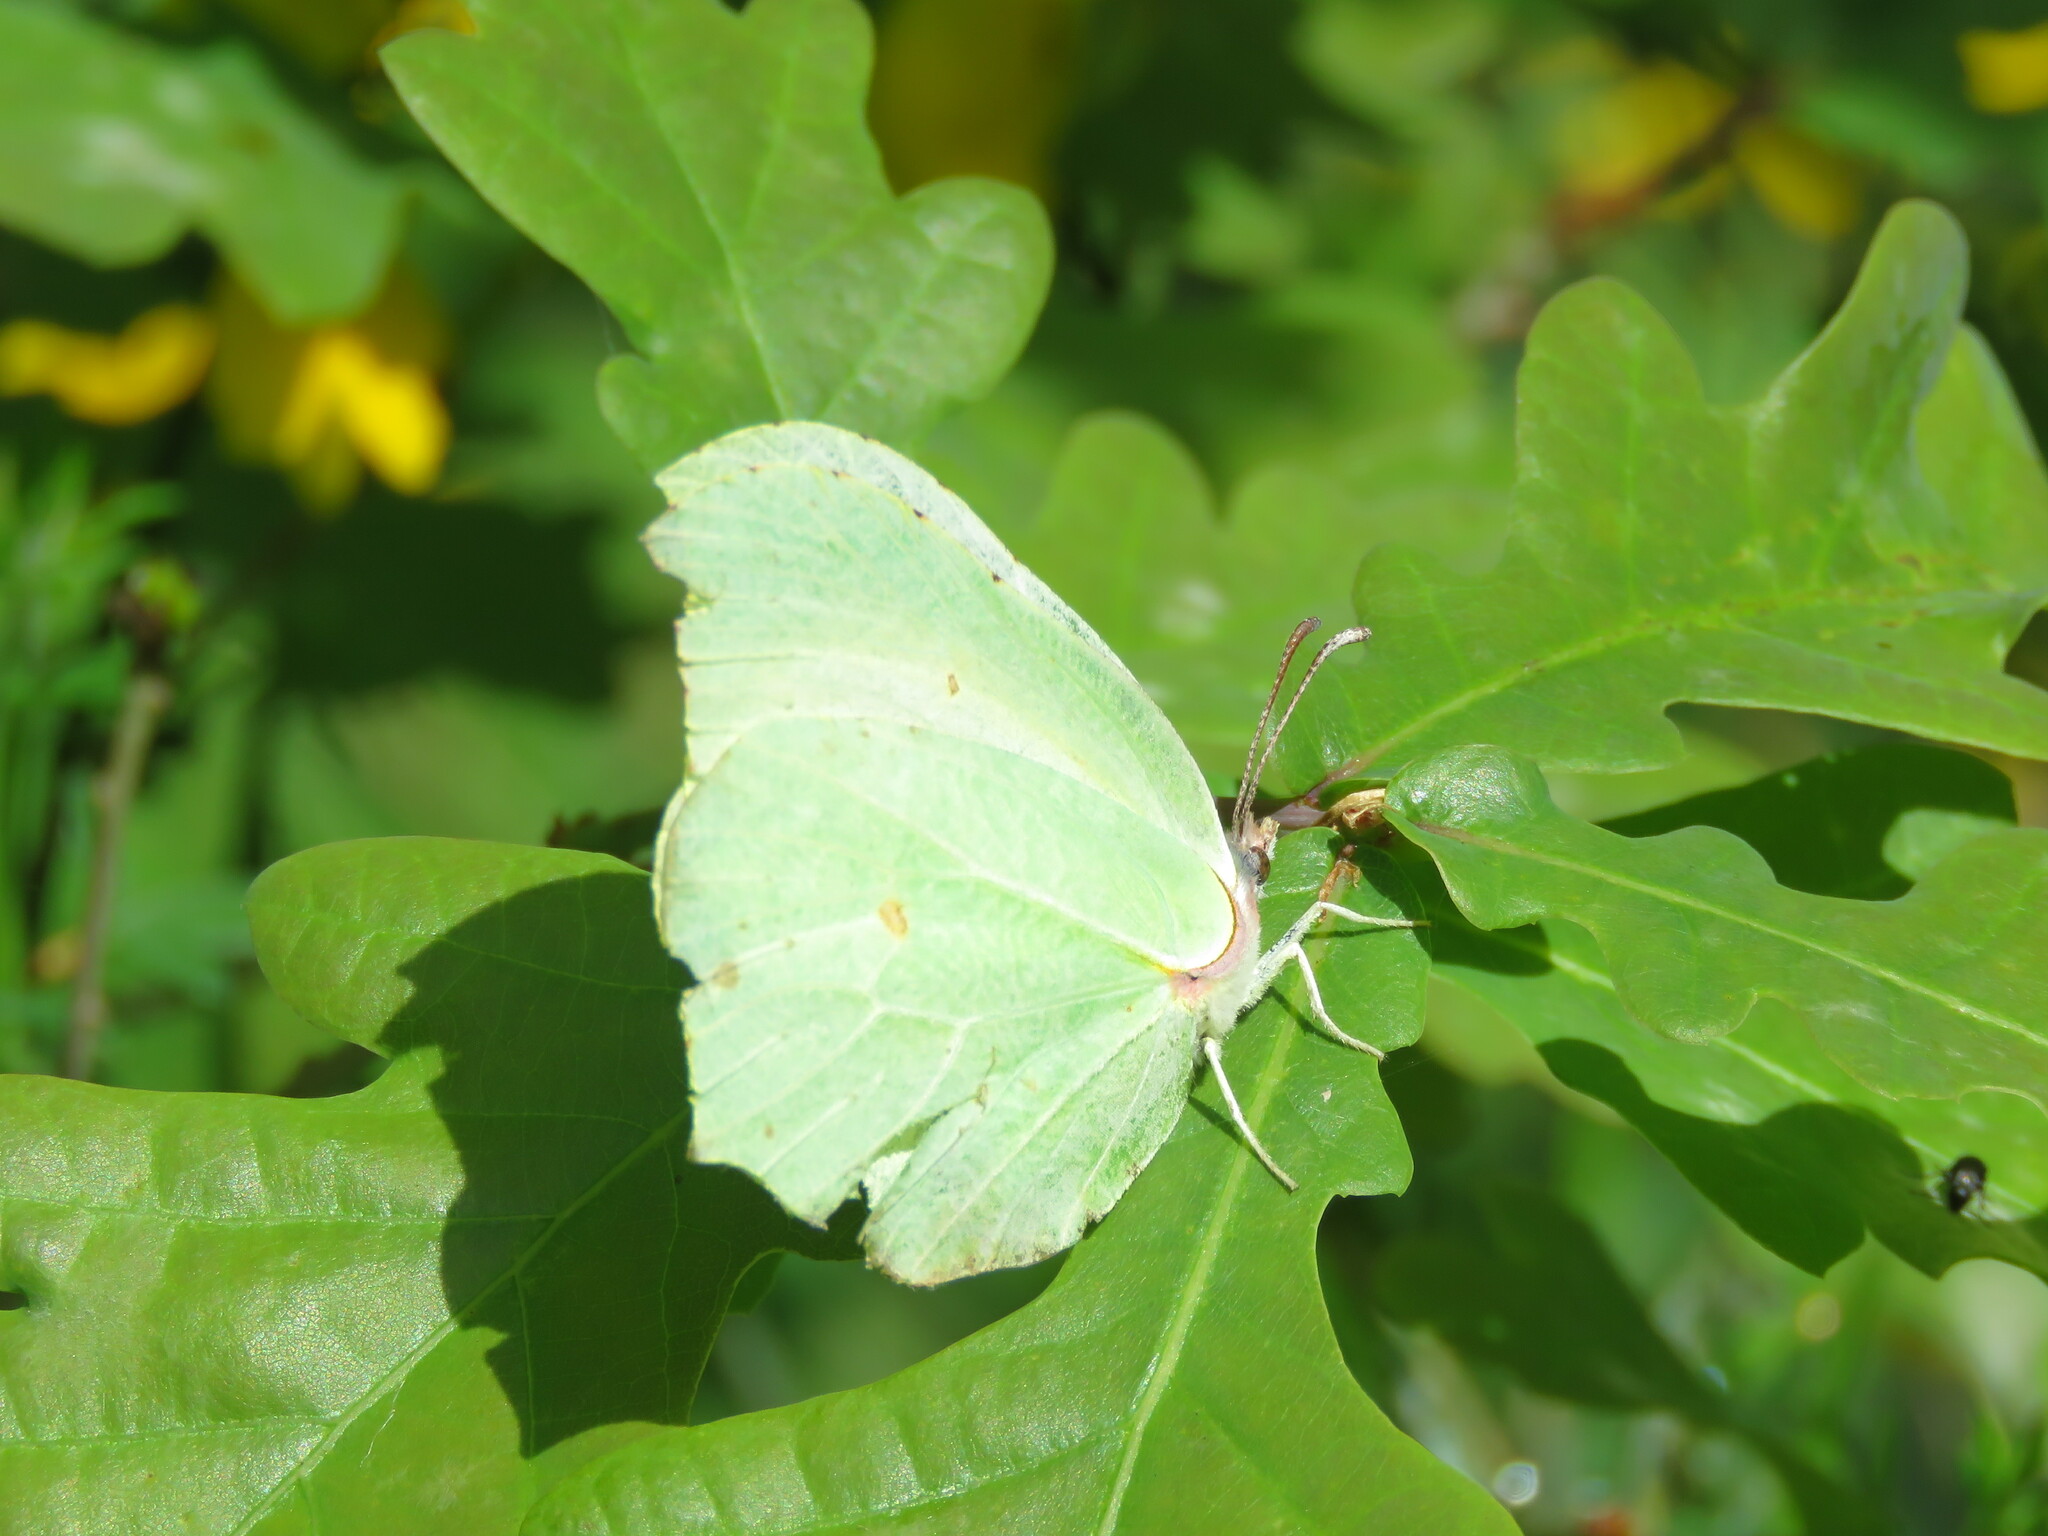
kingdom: Animalia
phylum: Arthropoda
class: Insecta
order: Lepidoptera
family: Pieridae
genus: Gonepteryx
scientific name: Gonepteryx rhamni
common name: Brimstone
